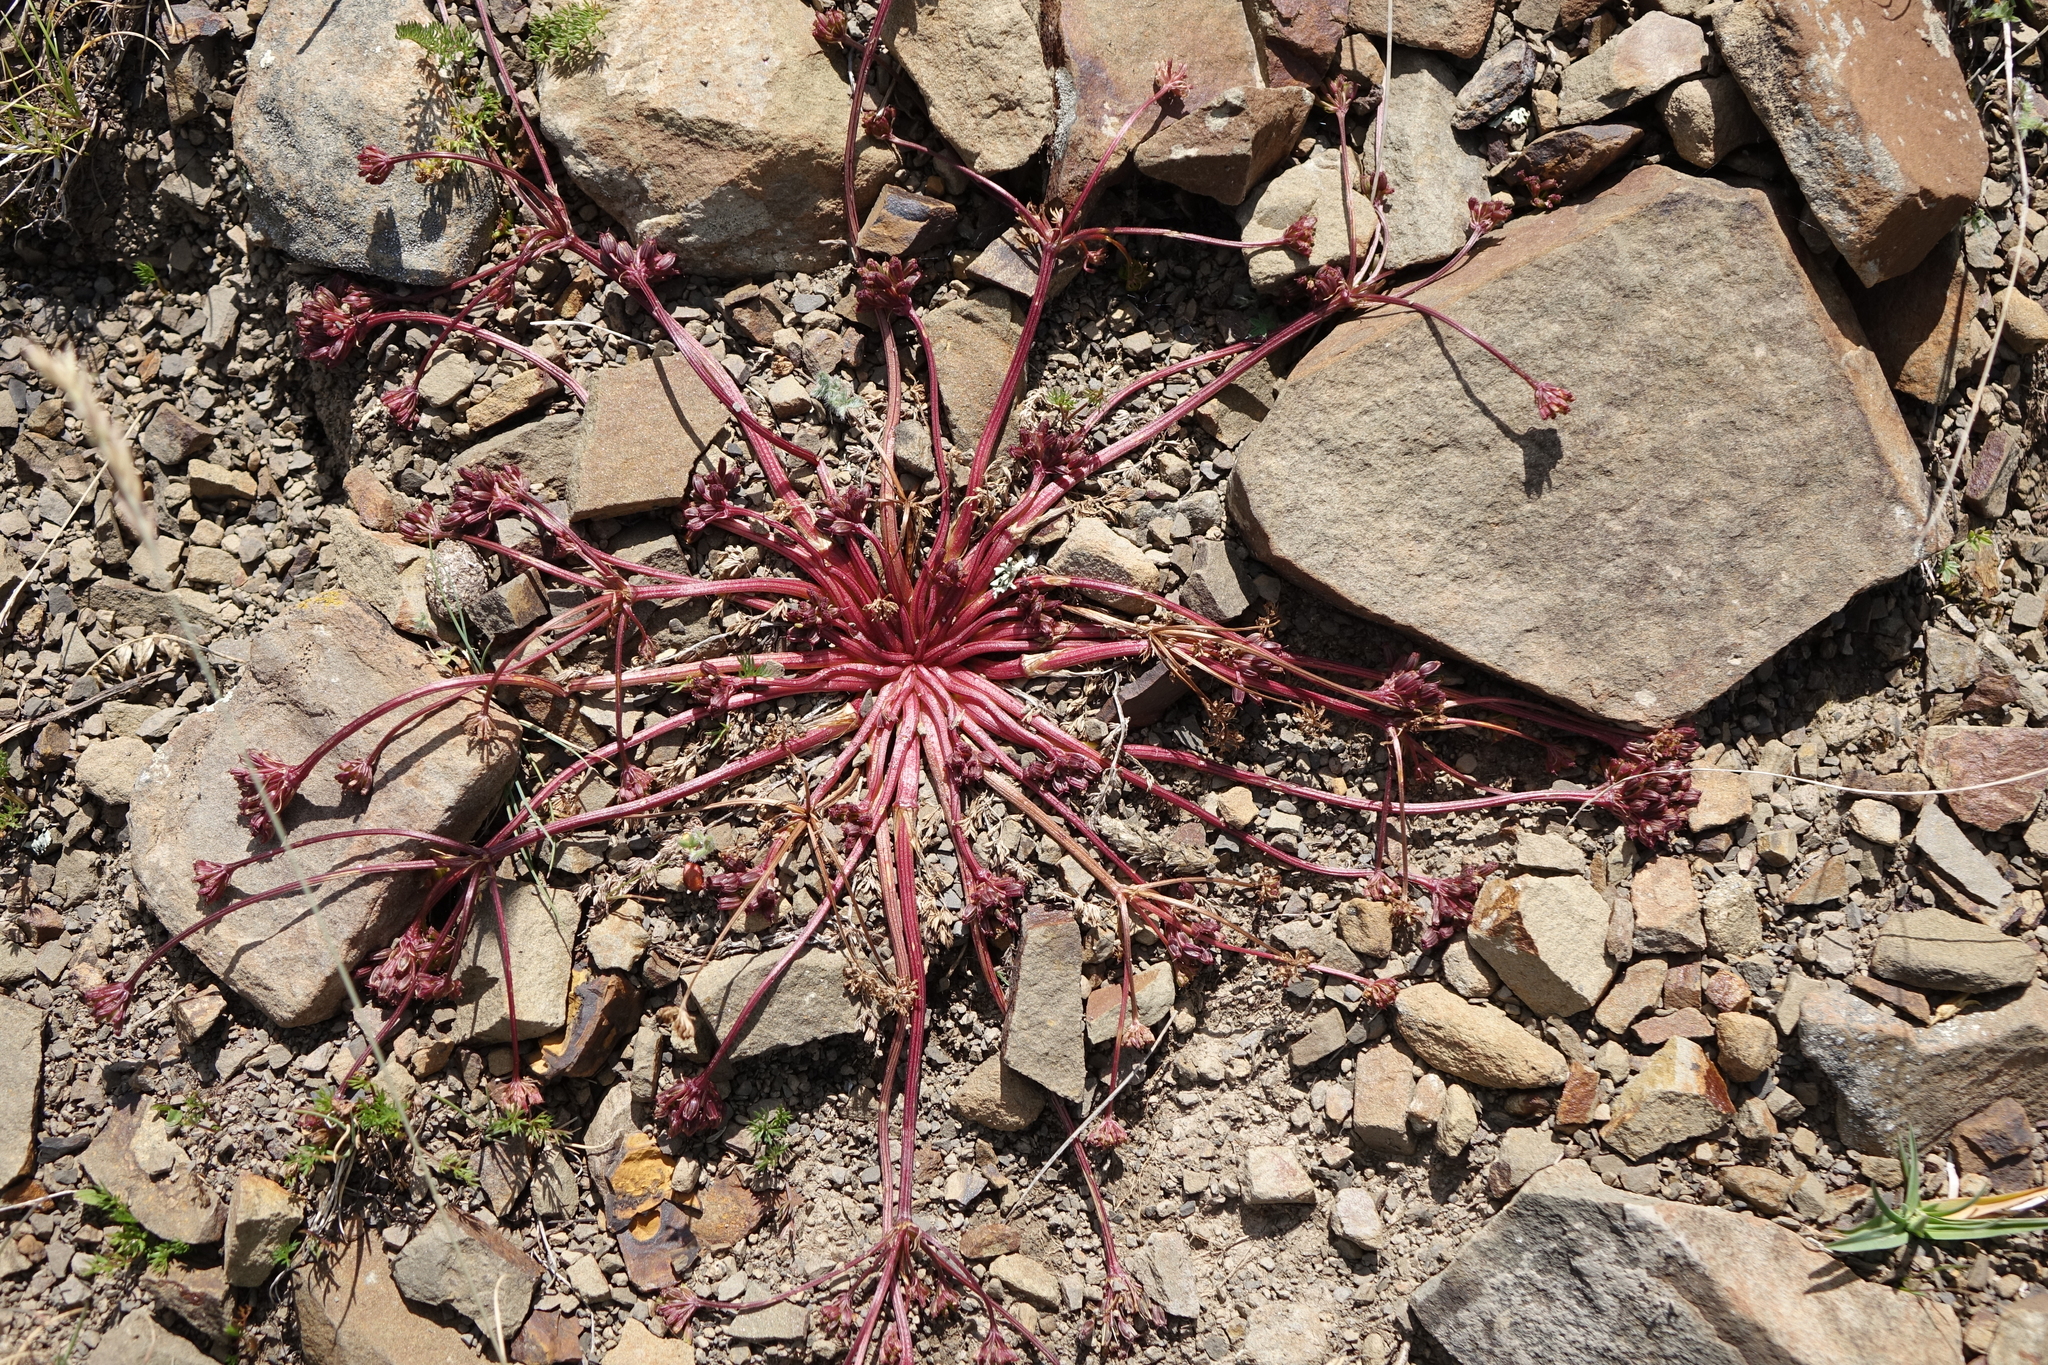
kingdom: Plantae
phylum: Tracheophyta
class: Magnoliopsida
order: Apiales
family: Apiaceae
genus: Chamaesciadium
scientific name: Chamaesciadium acaule
